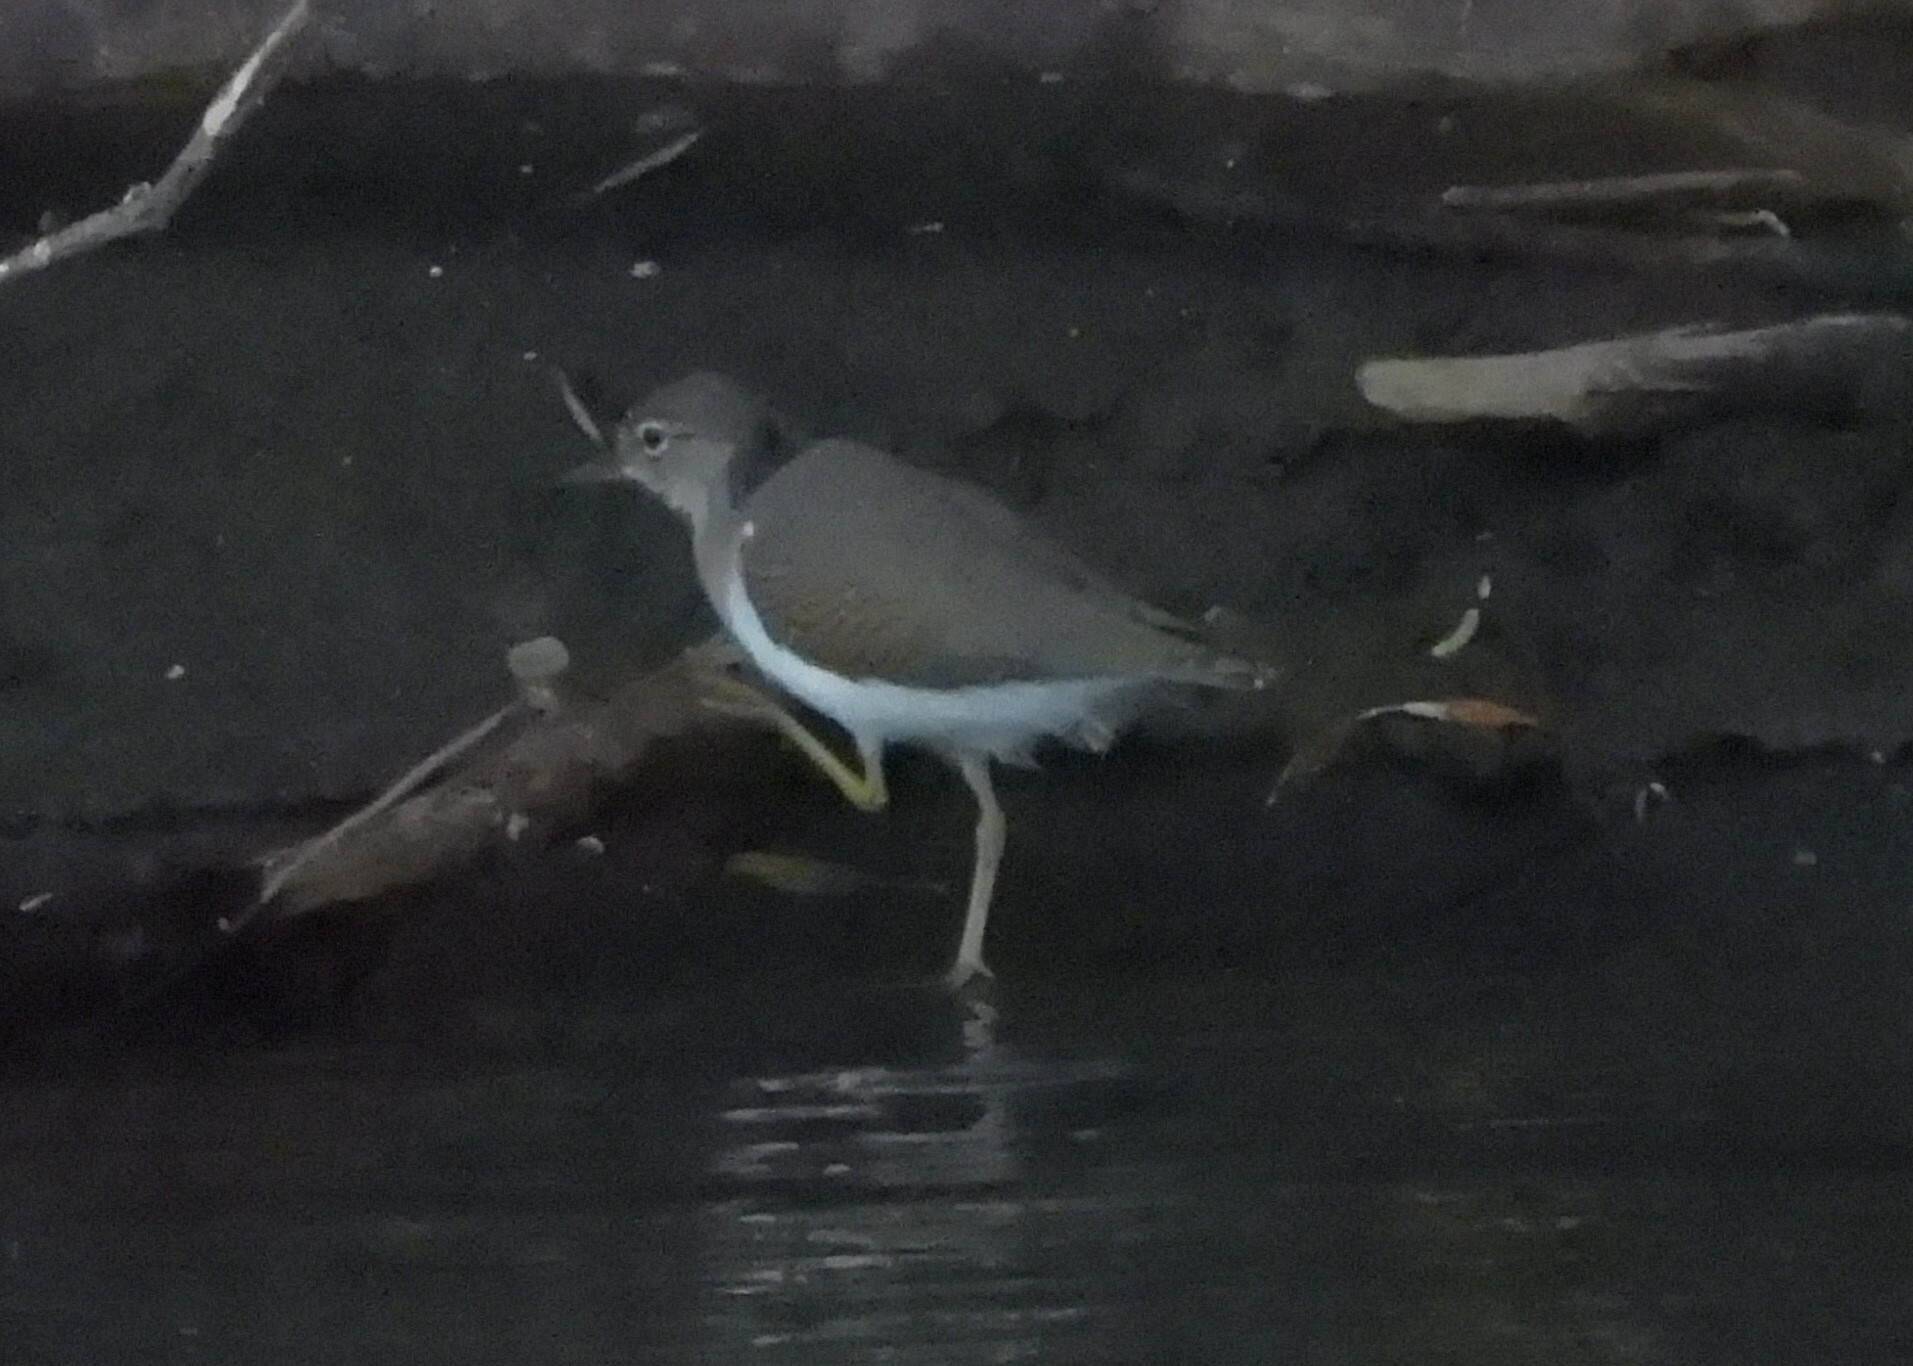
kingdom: Animalia
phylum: Chordata
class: Aves
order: Charadriiformes
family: Scolopacidae
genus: Actitis
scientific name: Actitis macularius
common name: Spotted sandpiper
